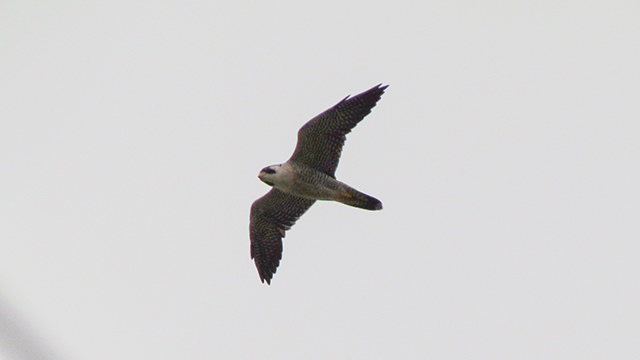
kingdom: Animalia
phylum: Chordata
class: Aves
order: Falconiformes
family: Falconidae
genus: Falco
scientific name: Falco peregrinus
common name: Peregrine falcon
